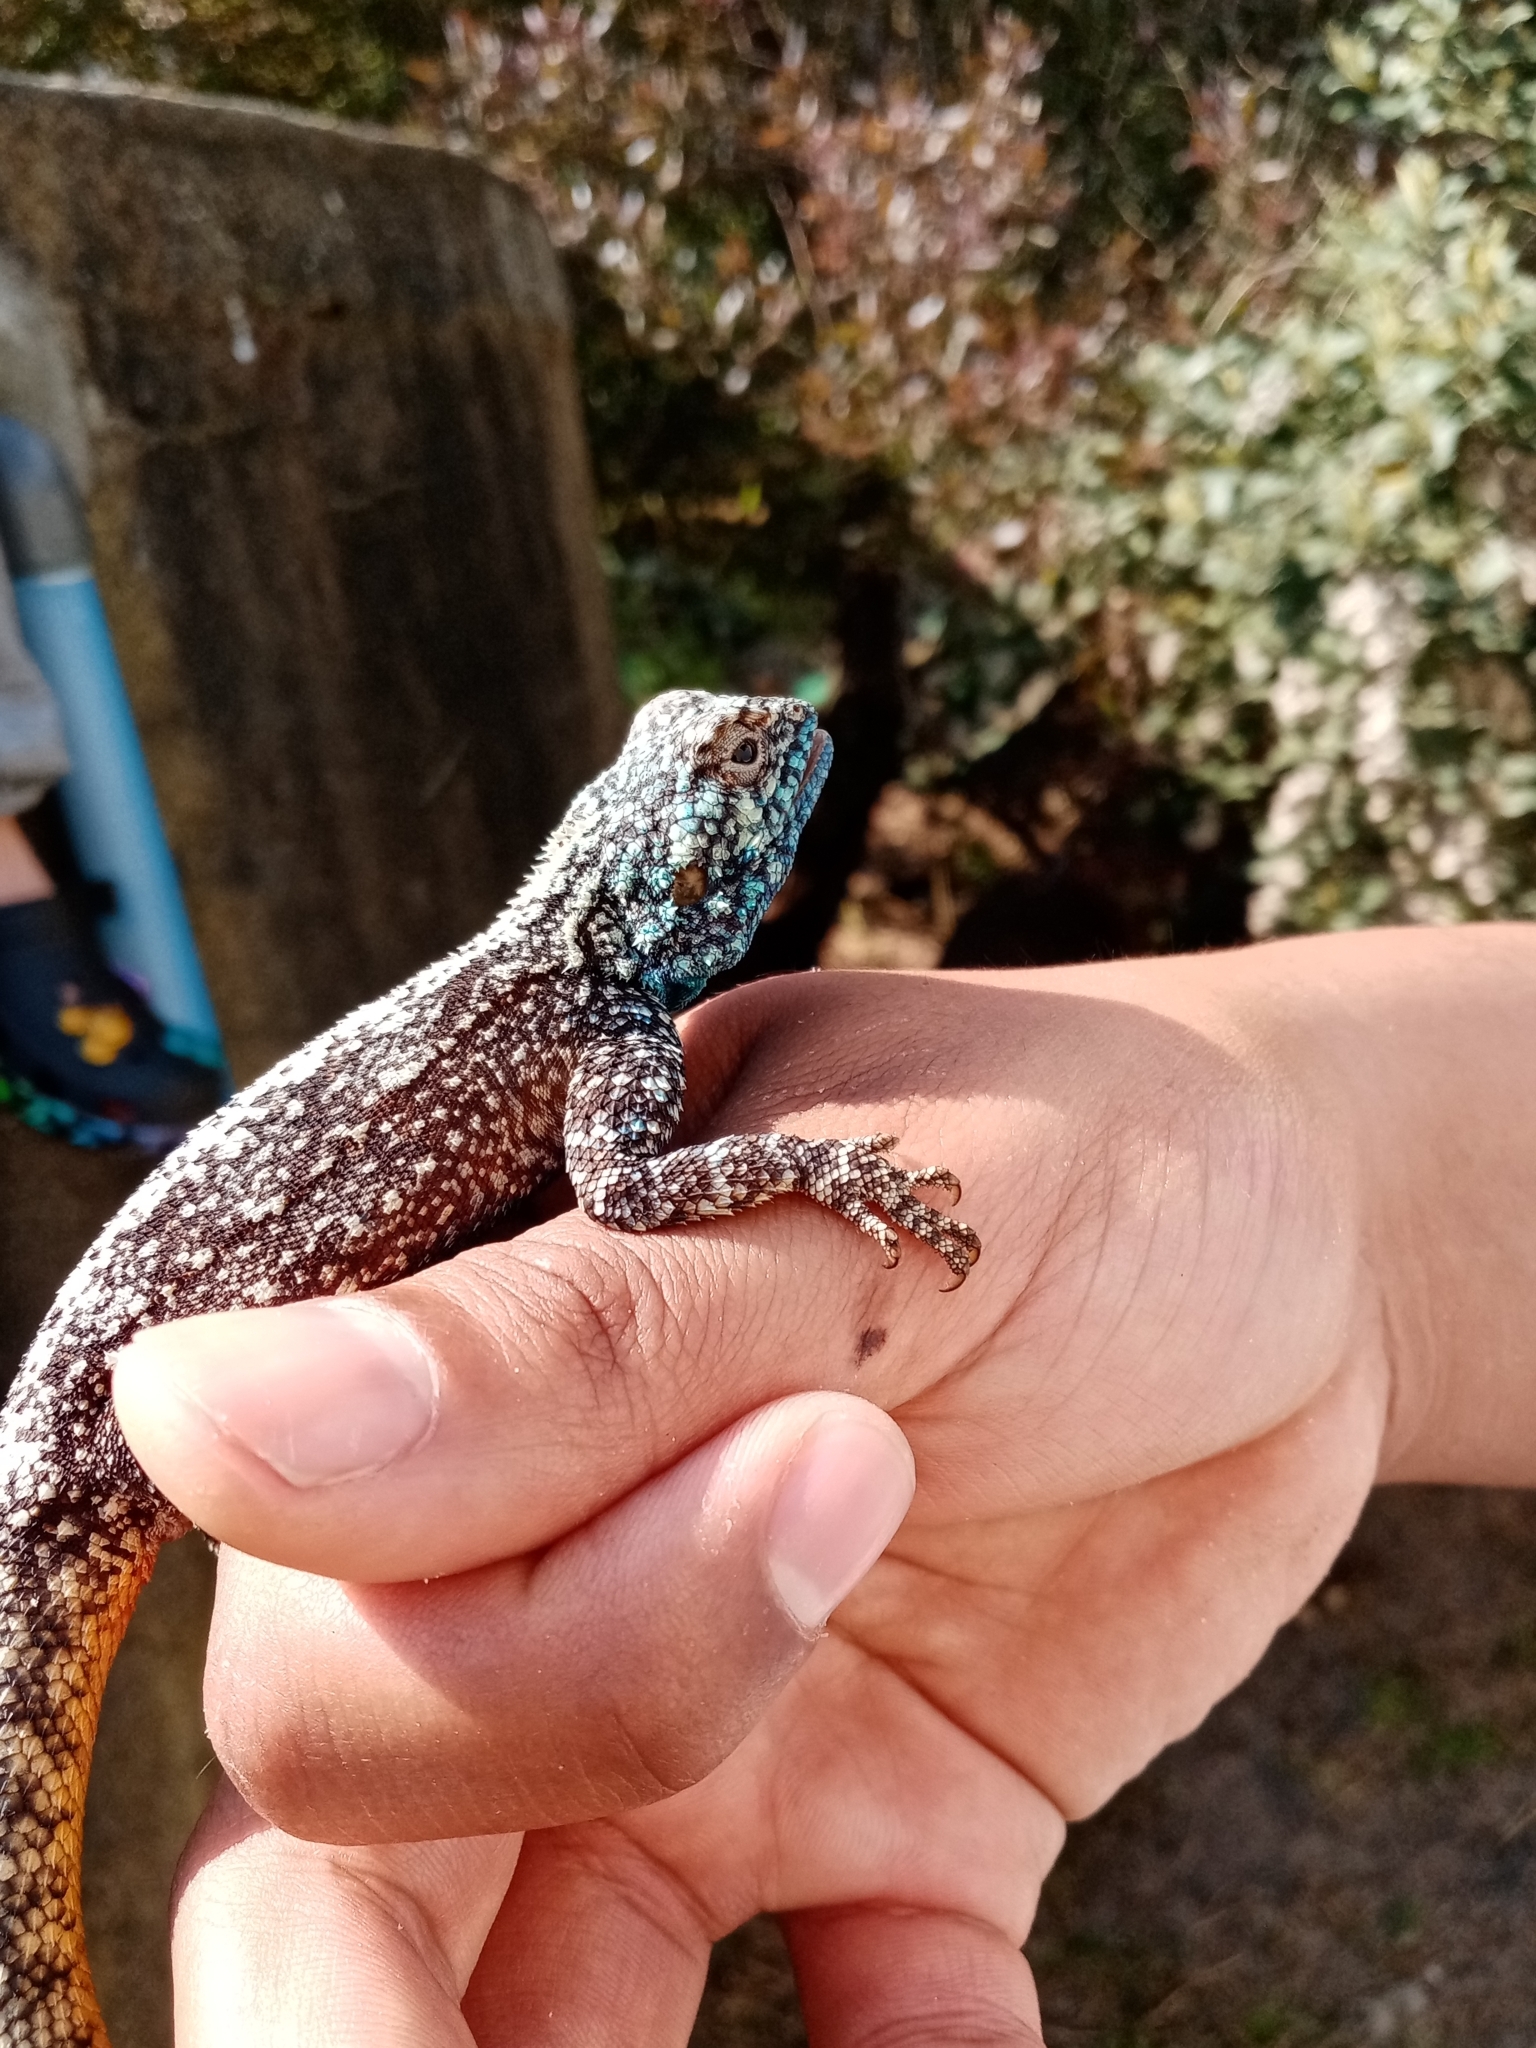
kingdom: Animalia
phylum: Chordata
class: Squamata
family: Agamidae
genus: Agama
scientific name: Agama atra
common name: Southern african rock agama
